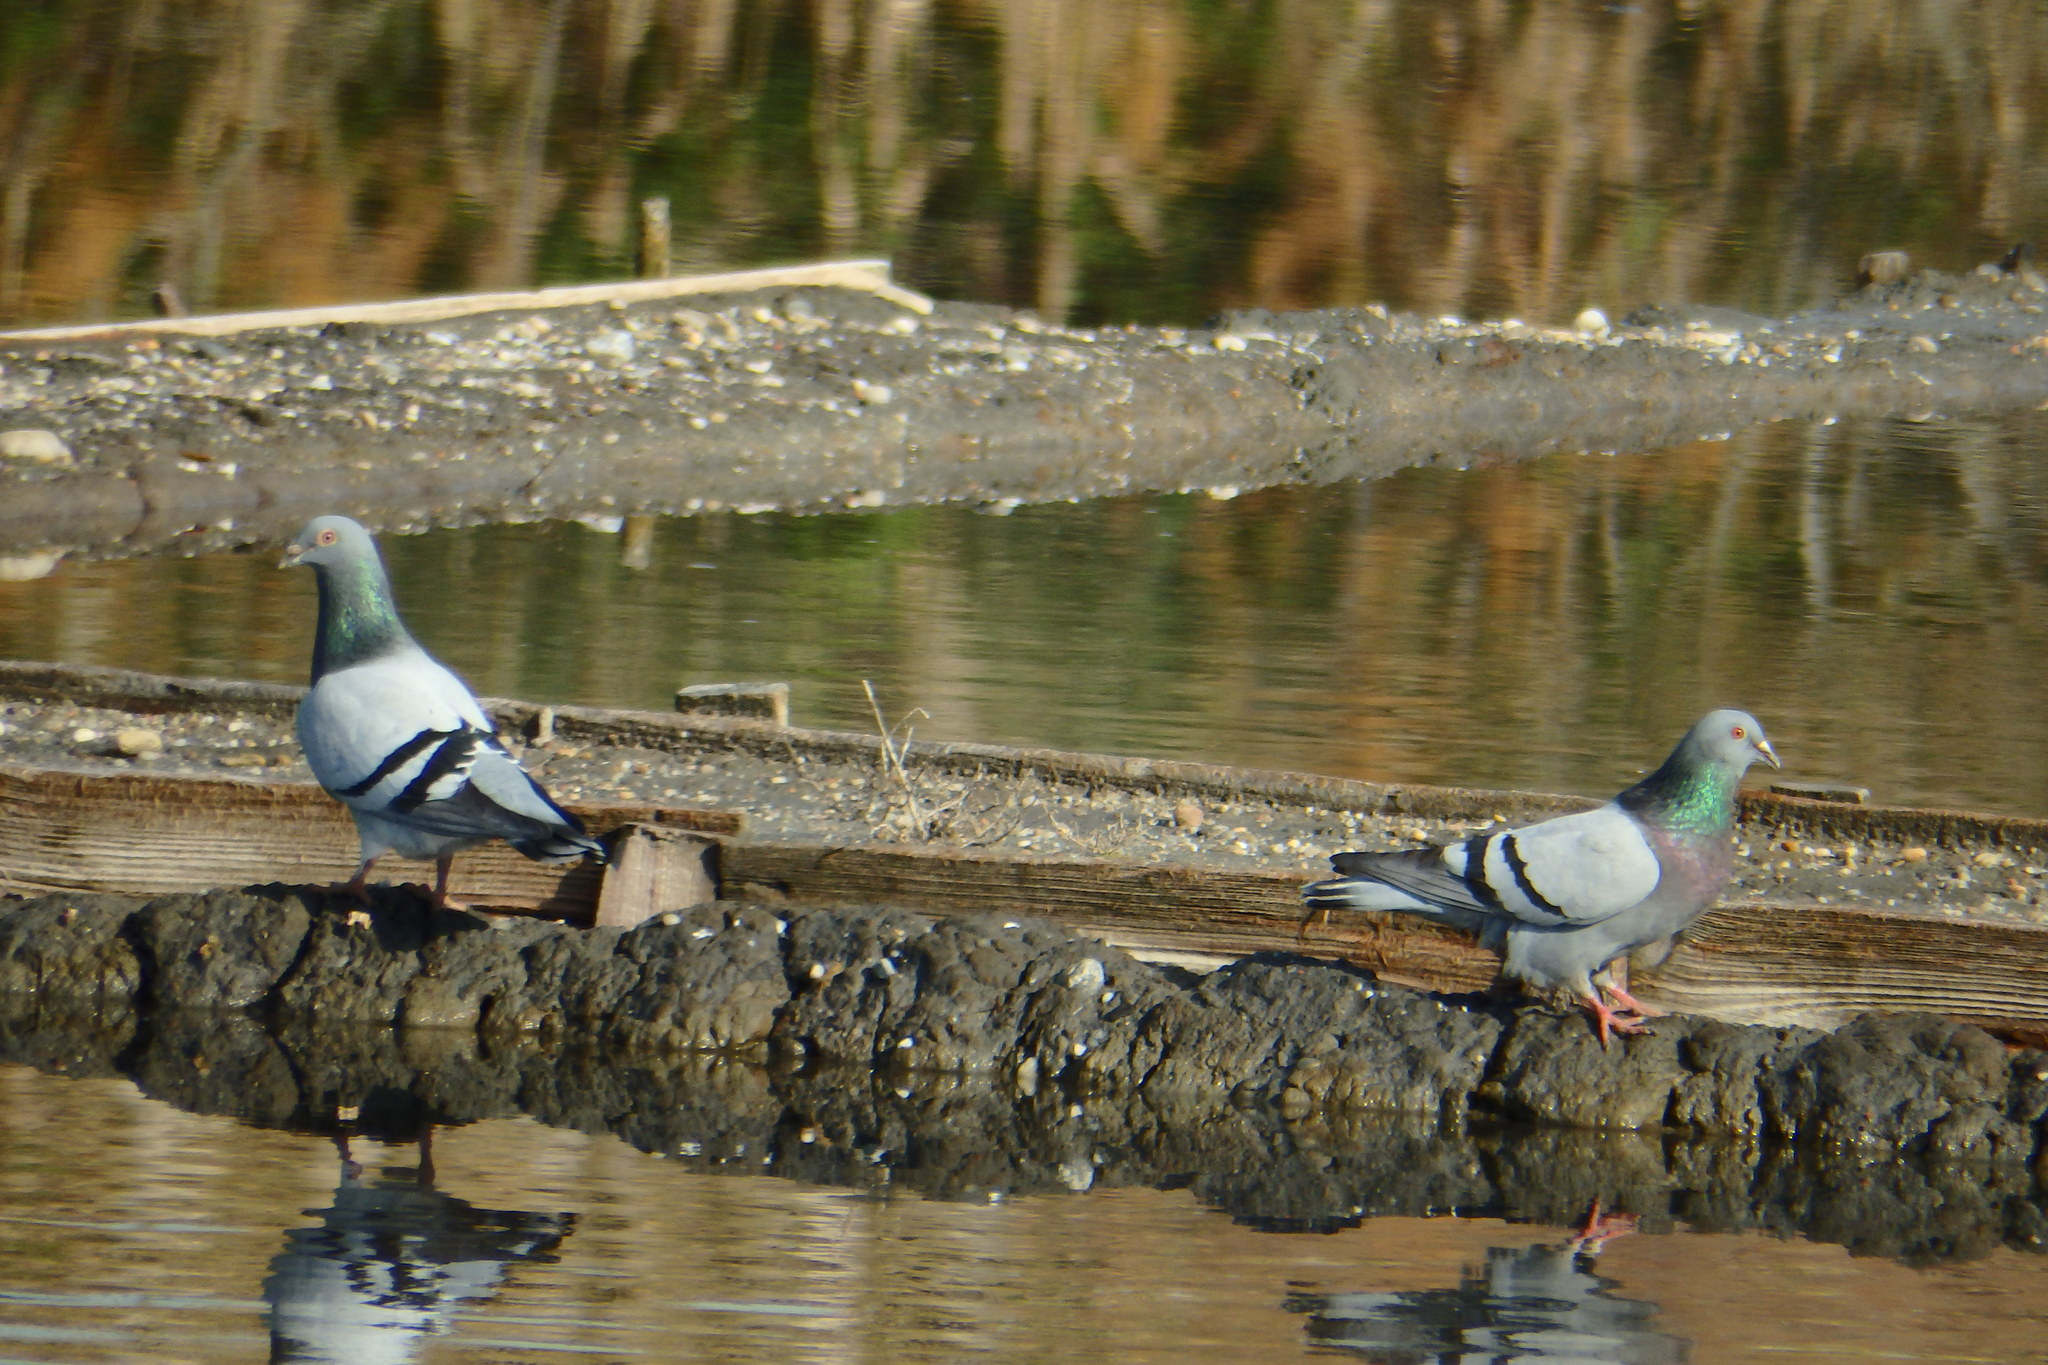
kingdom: Animalia
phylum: Chordata
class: Aves
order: Columbiformes
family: Columbidae
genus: Columba
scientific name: Columba livia
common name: Rock pigeon
